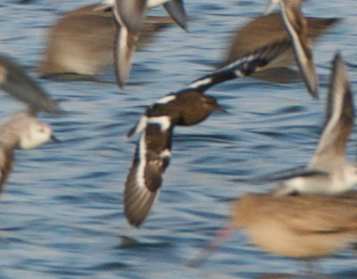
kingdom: Animalia
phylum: Chordata
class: Aves
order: Charadriiformes
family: Scolopacidae
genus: Arenaria
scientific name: Arenaria melanocephala
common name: Black turnstone
